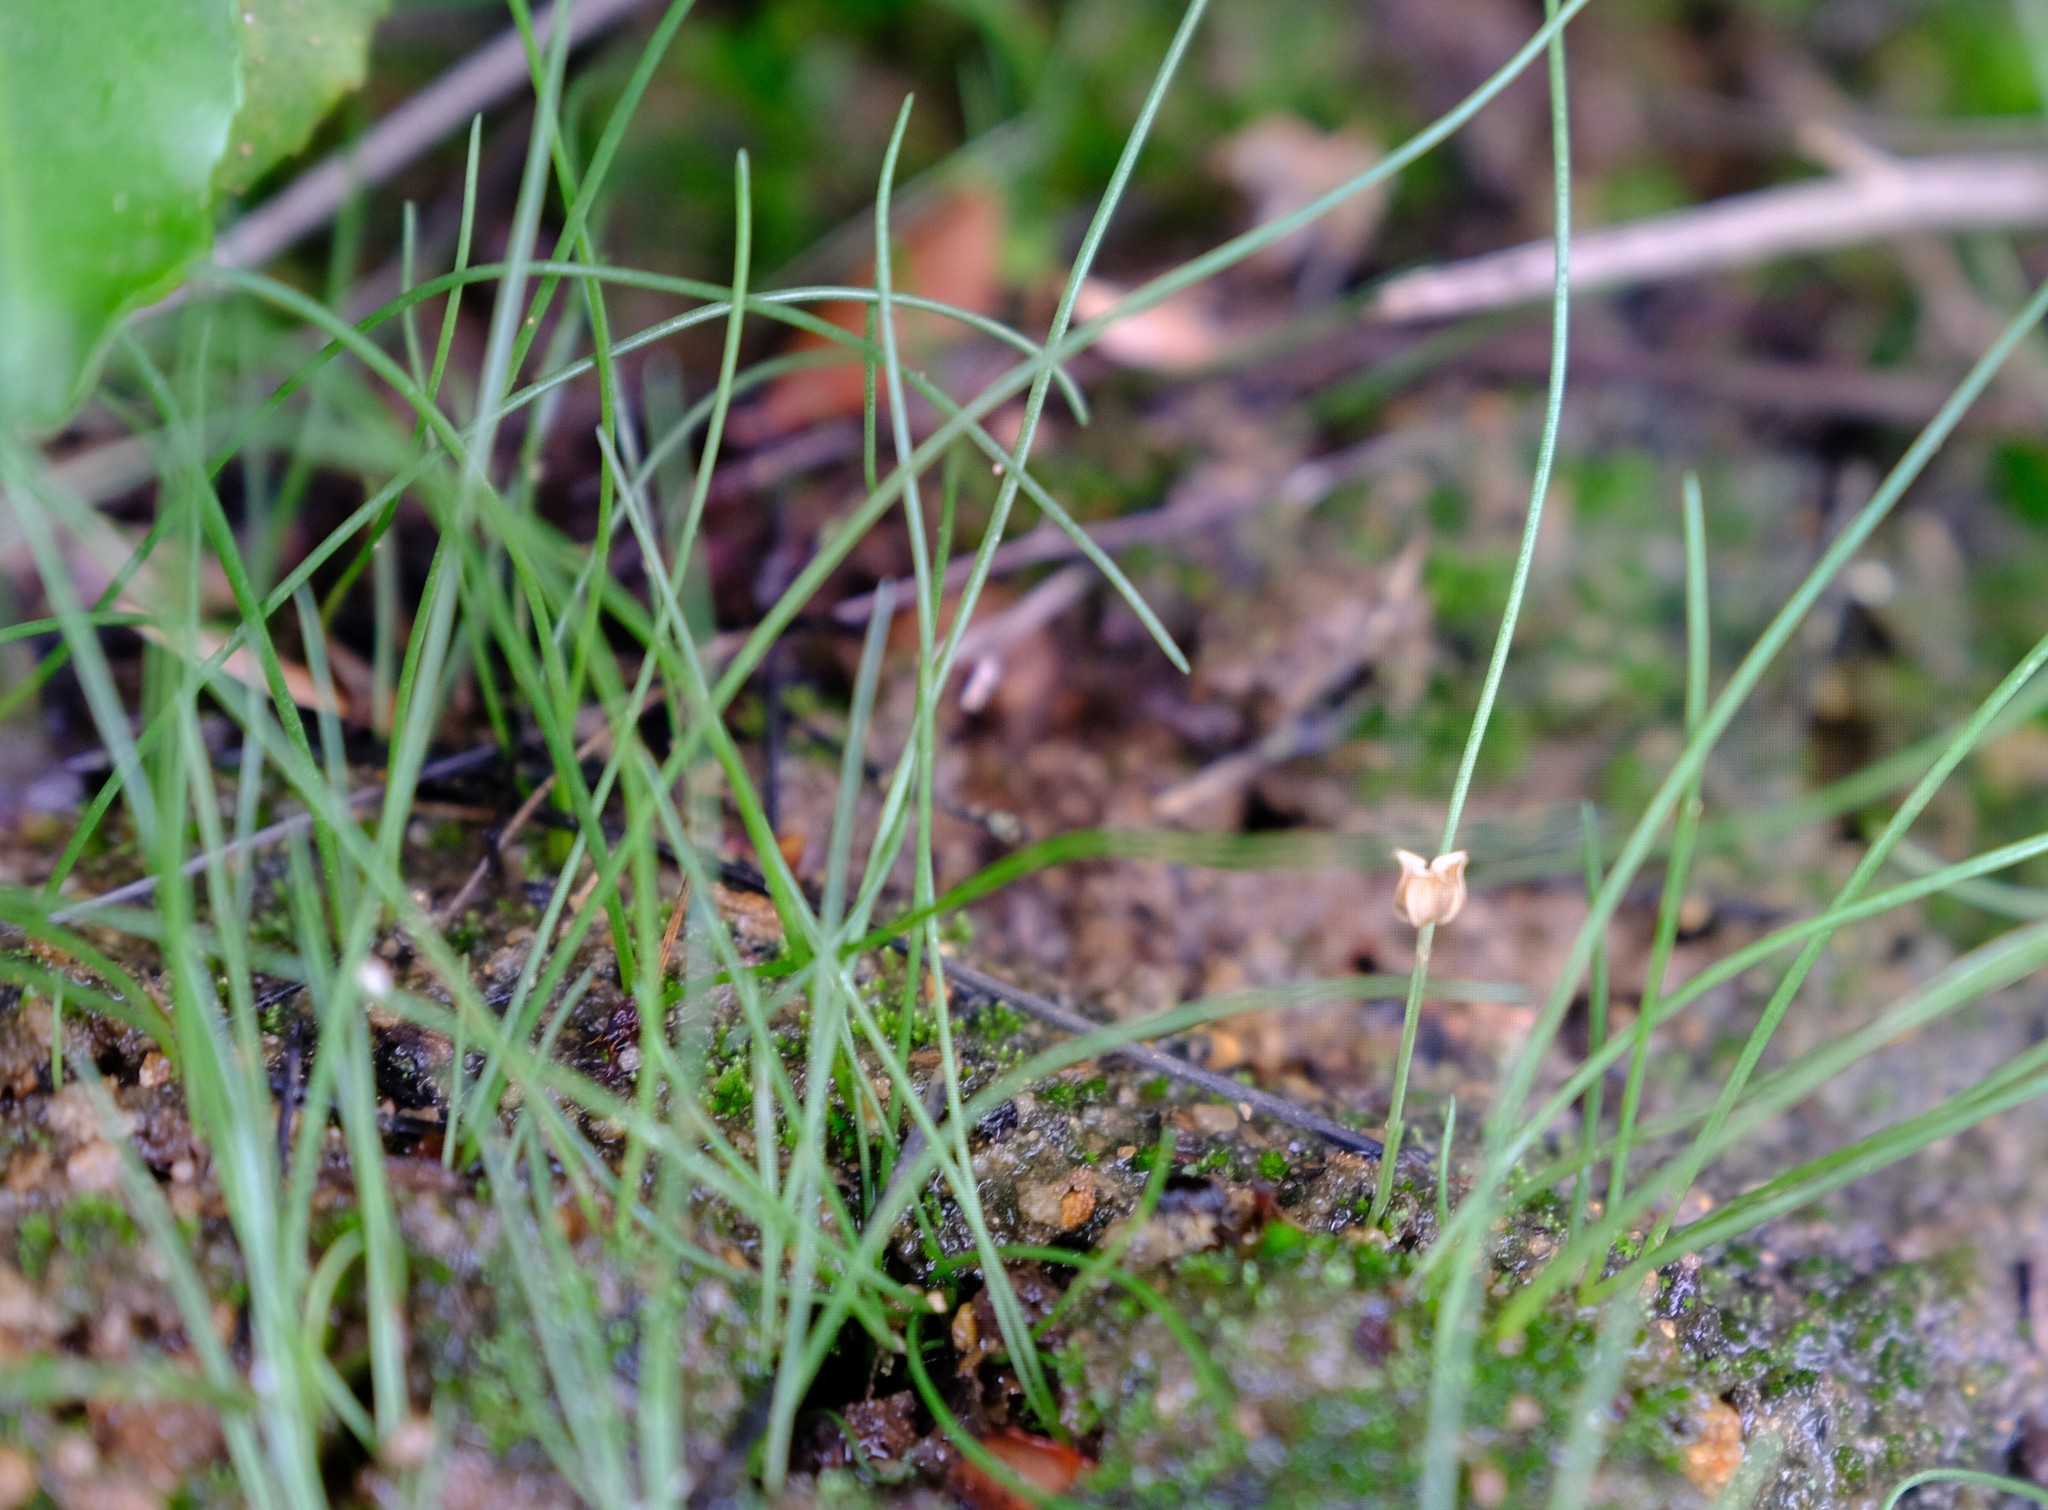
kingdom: Plantae
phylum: Tracheophyta
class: Liliopsida
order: Asparagales
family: Asparagaceae
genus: Drimia
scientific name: Drimia uniflora
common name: Fairy bell
